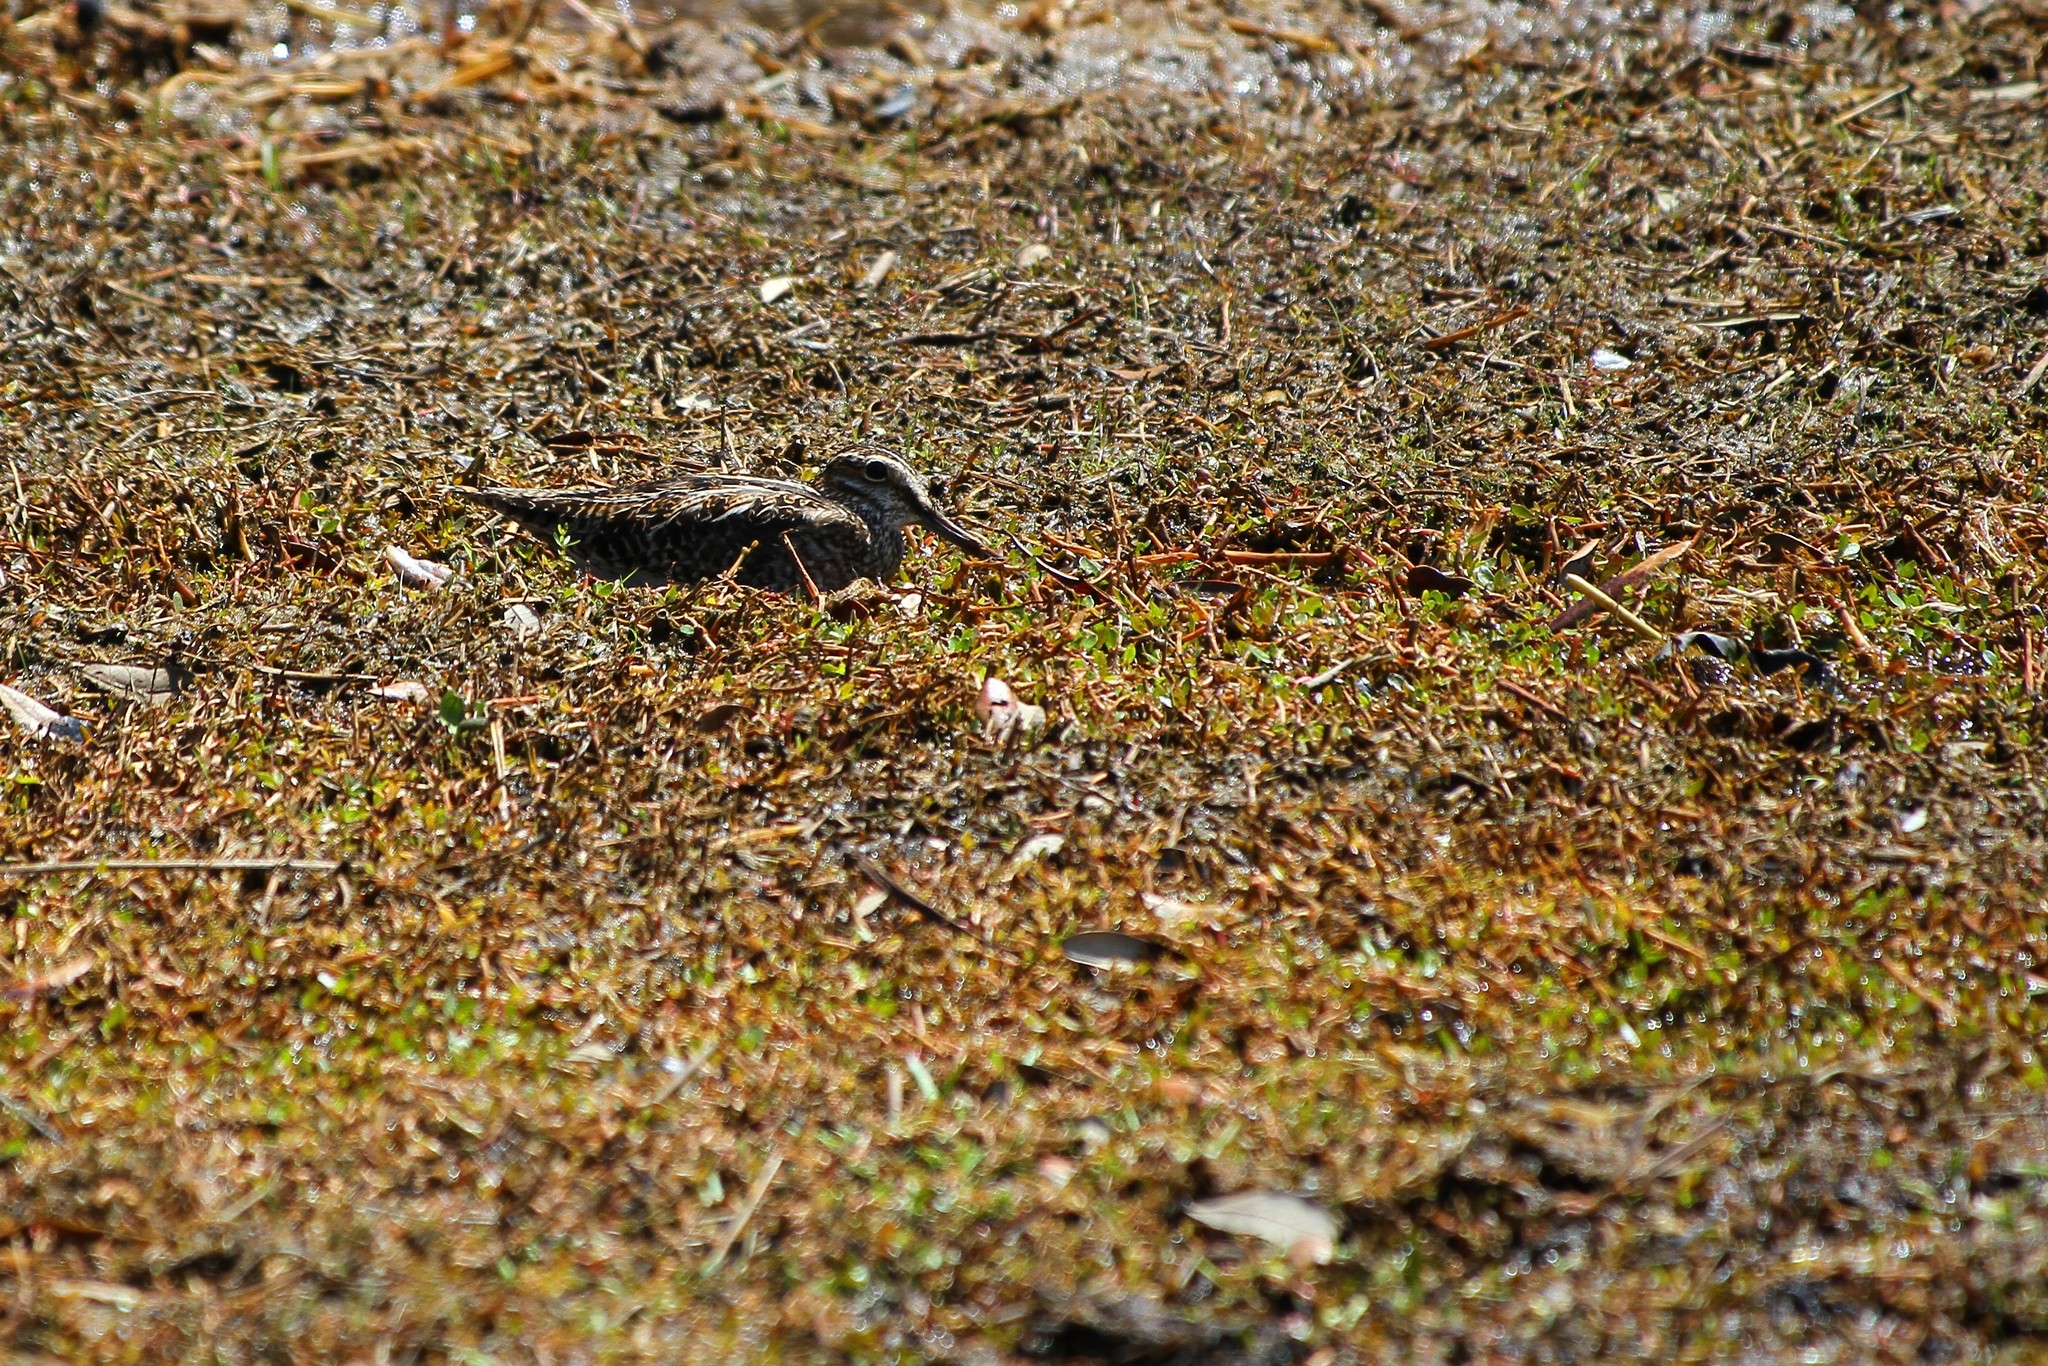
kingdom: Animalia
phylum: Chordata
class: Aves
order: Charadriiformes
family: Scolopacidae
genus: Gallinago
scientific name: Gallinago delicata
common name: Wilson's snipe
